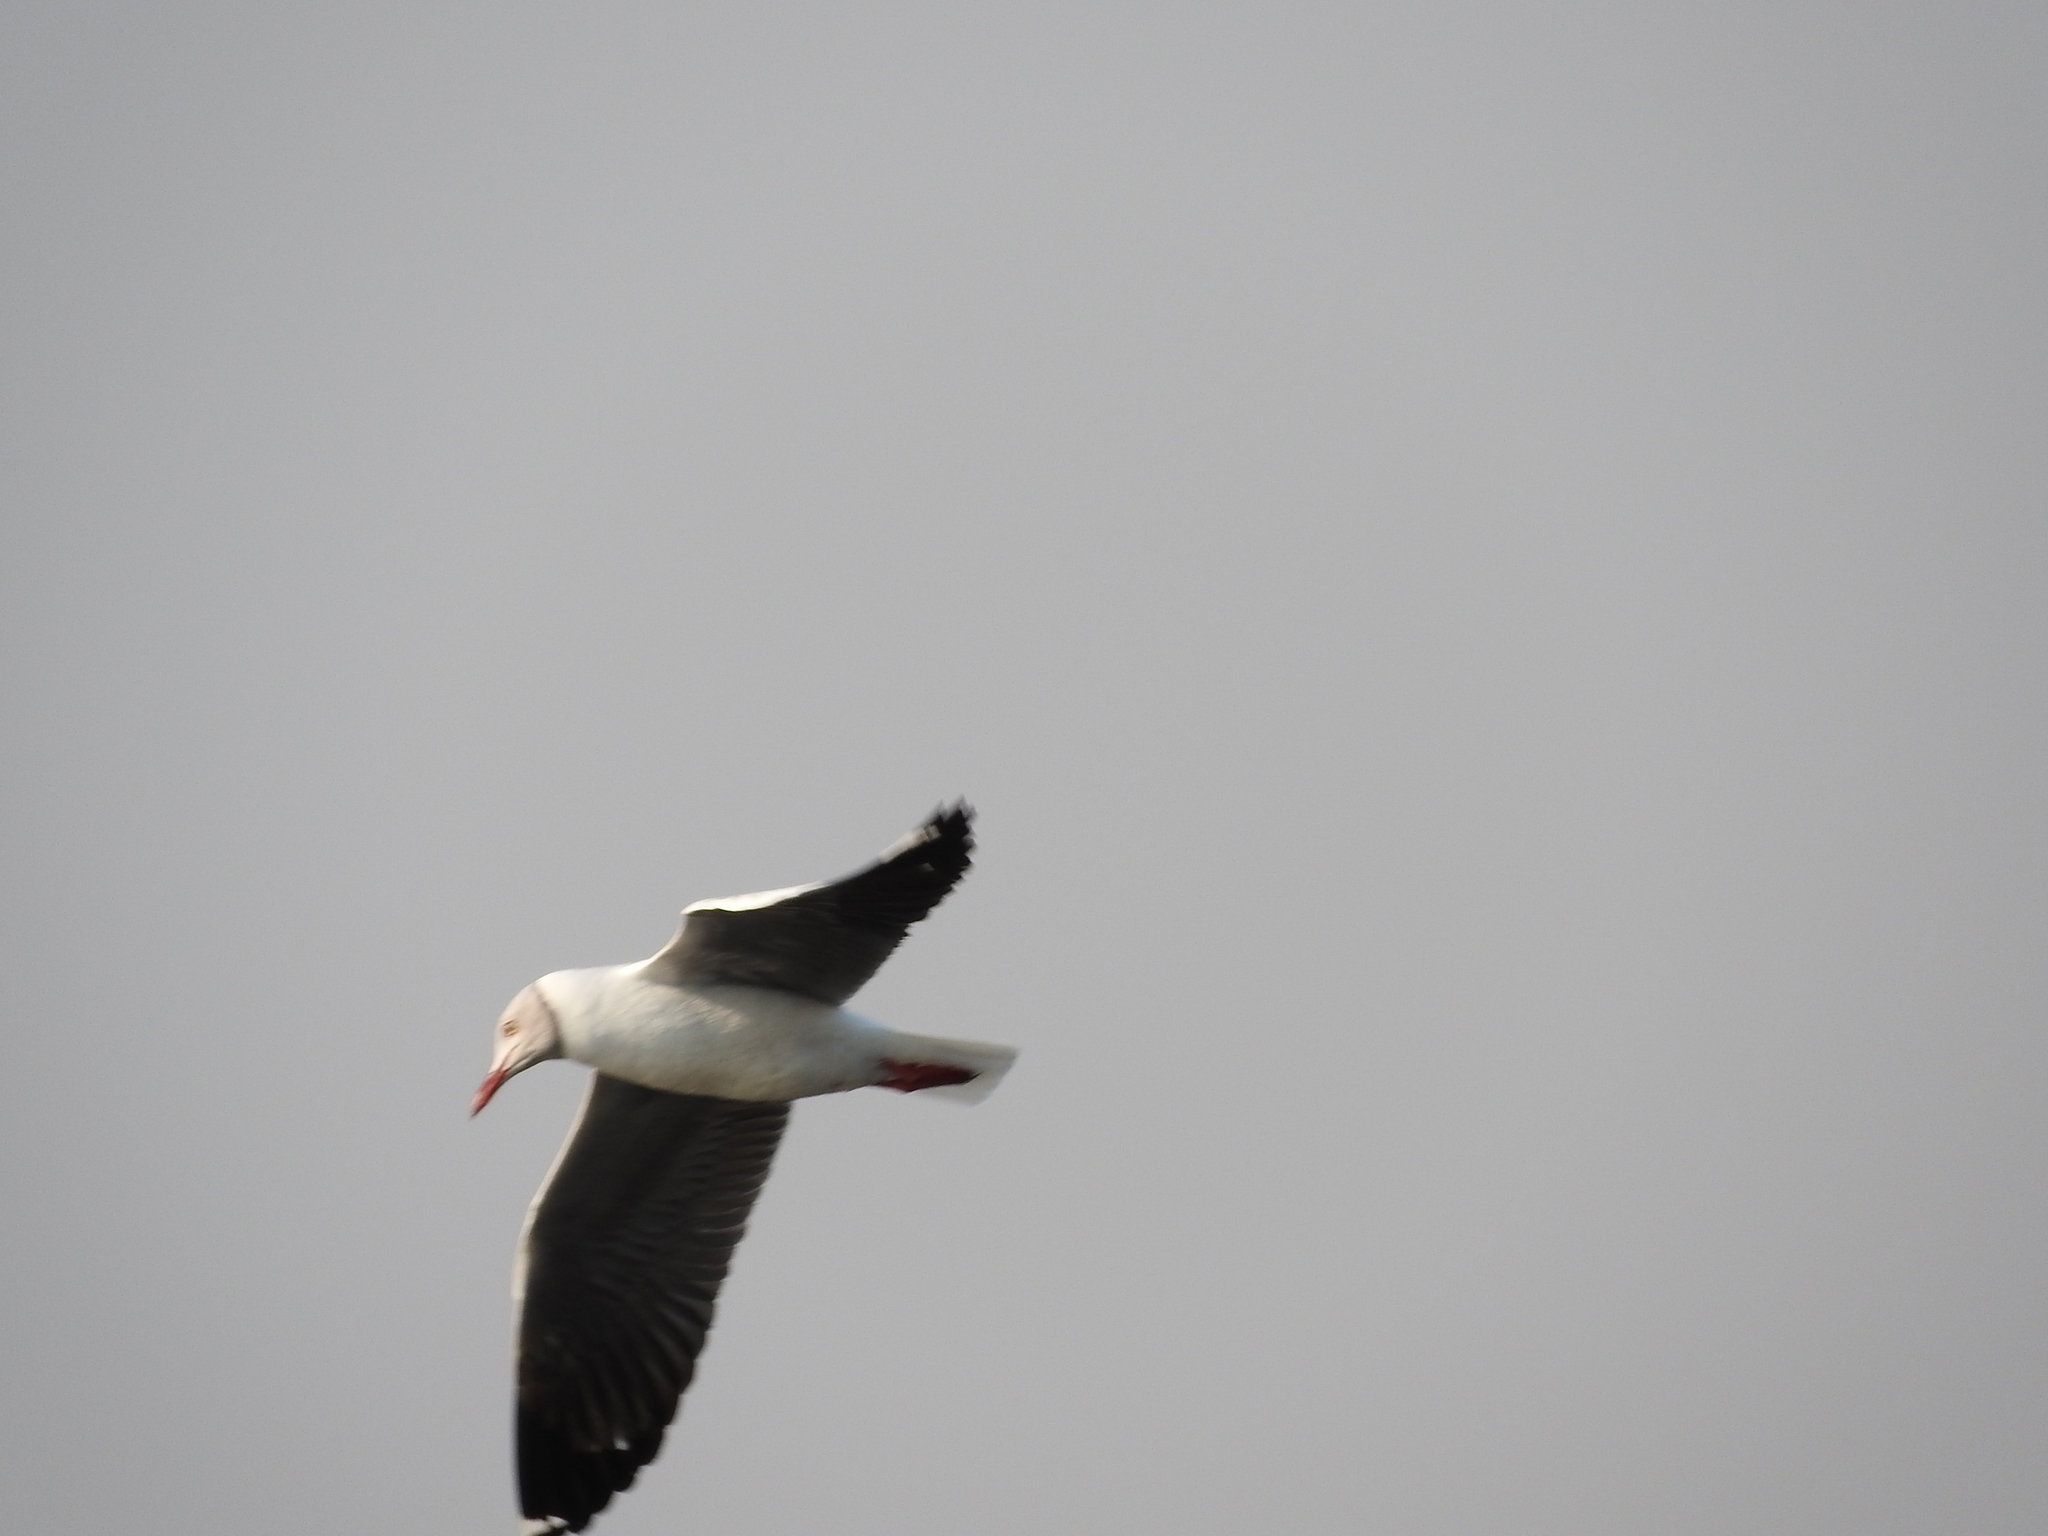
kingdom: Animalia
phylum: Chordata
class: Aves
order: Charadriiformes
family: Laridae
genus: Chroicocephalus
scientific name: Chroicocephalus cirrocephalus
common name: Grey-headed gull
